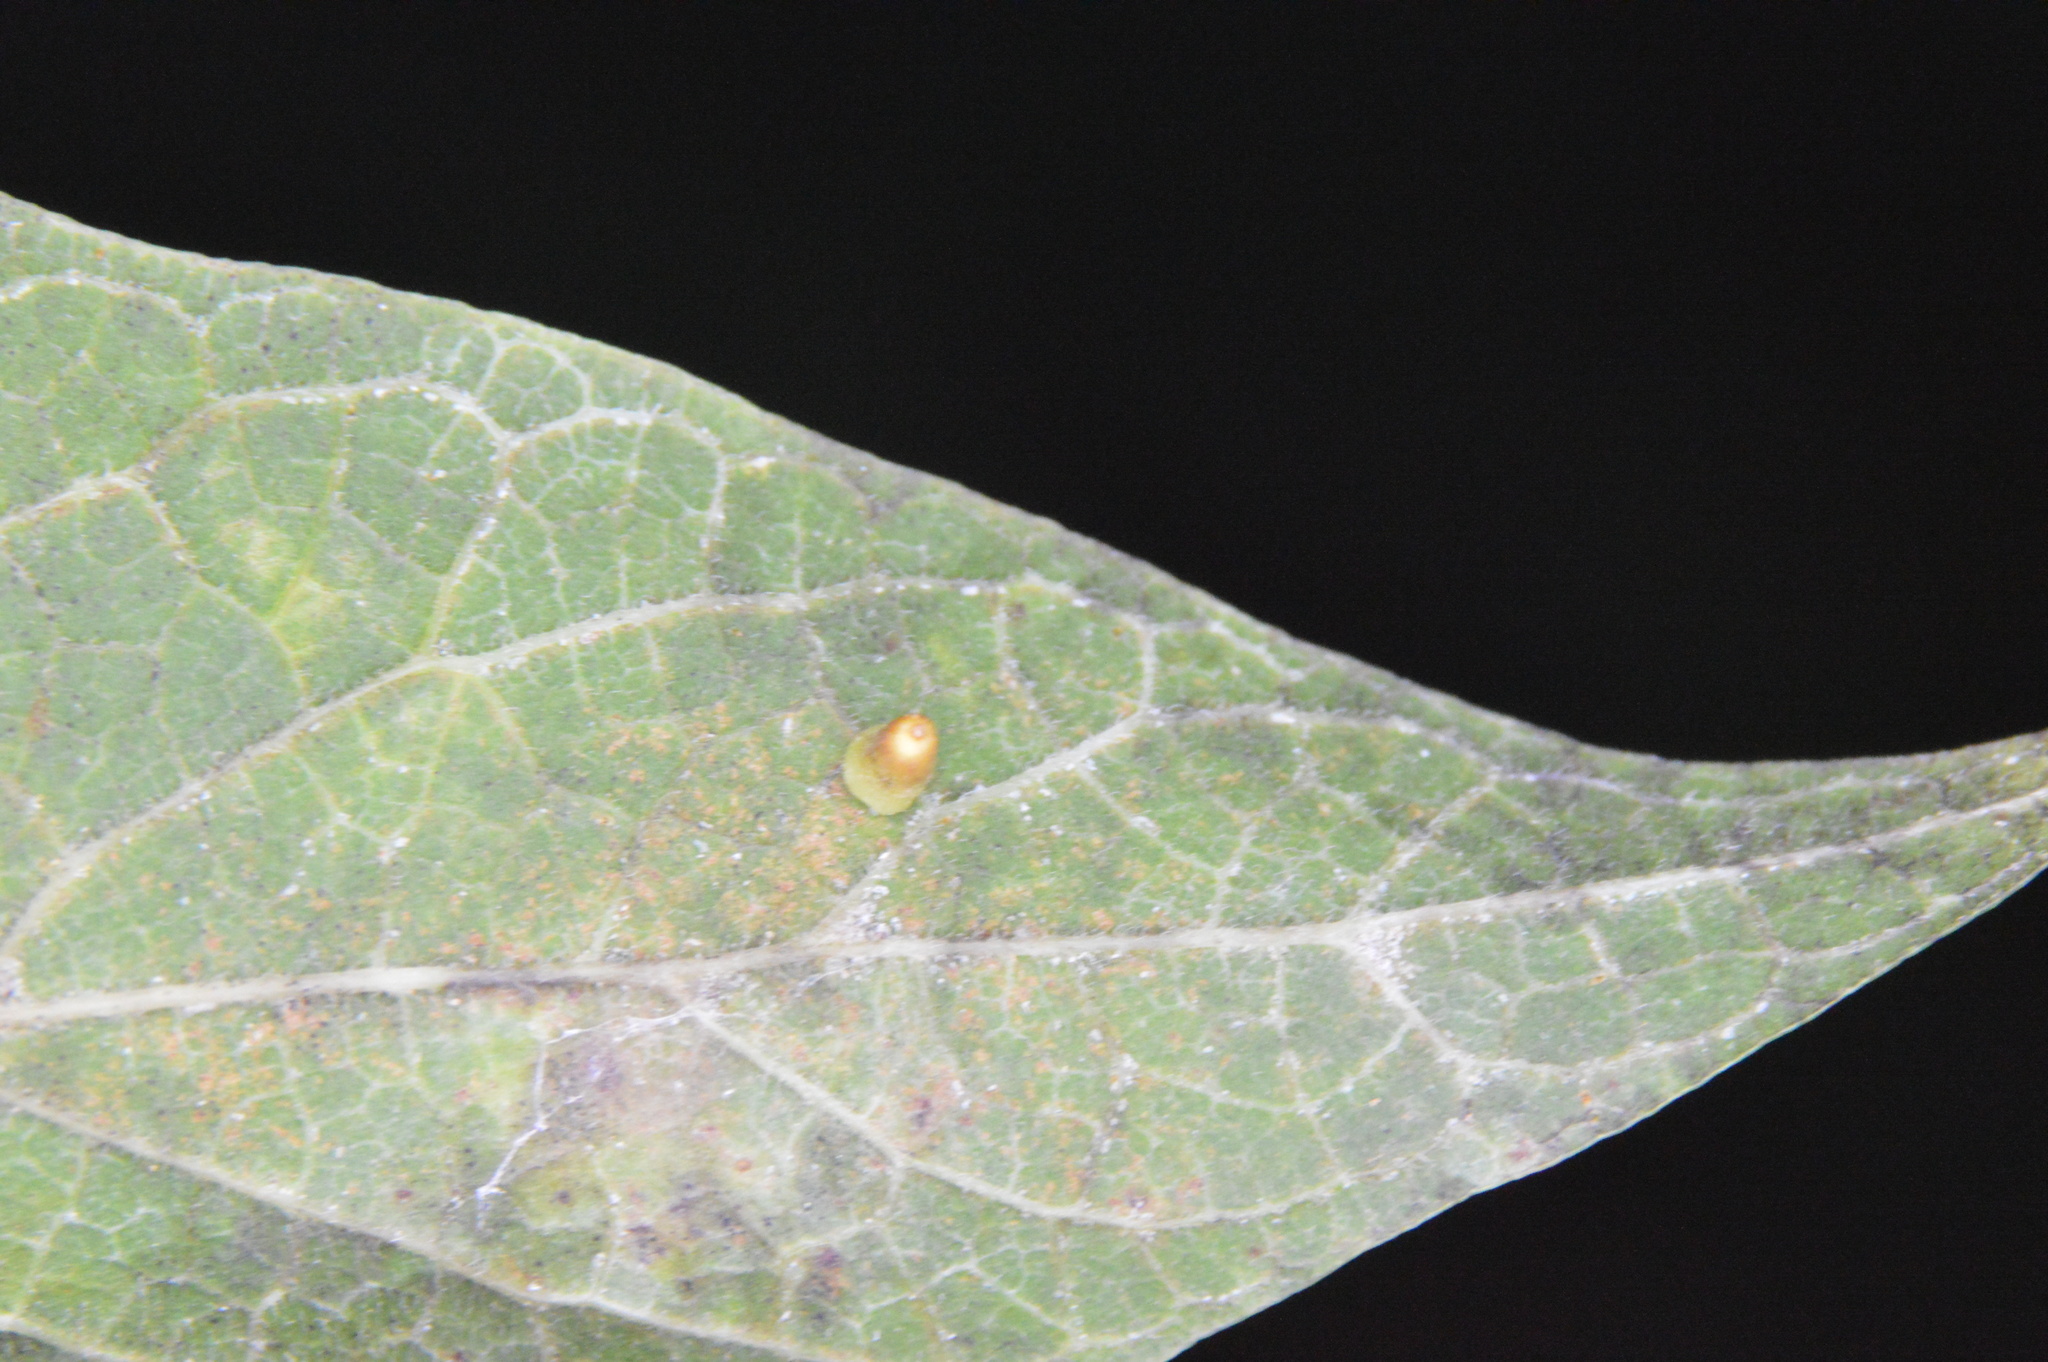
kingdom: Animalia
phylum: Arthropoda
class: Insecta
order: Diptera
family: Cecidomyiidae
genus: Celticecis
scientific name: Celticecis aciculata
